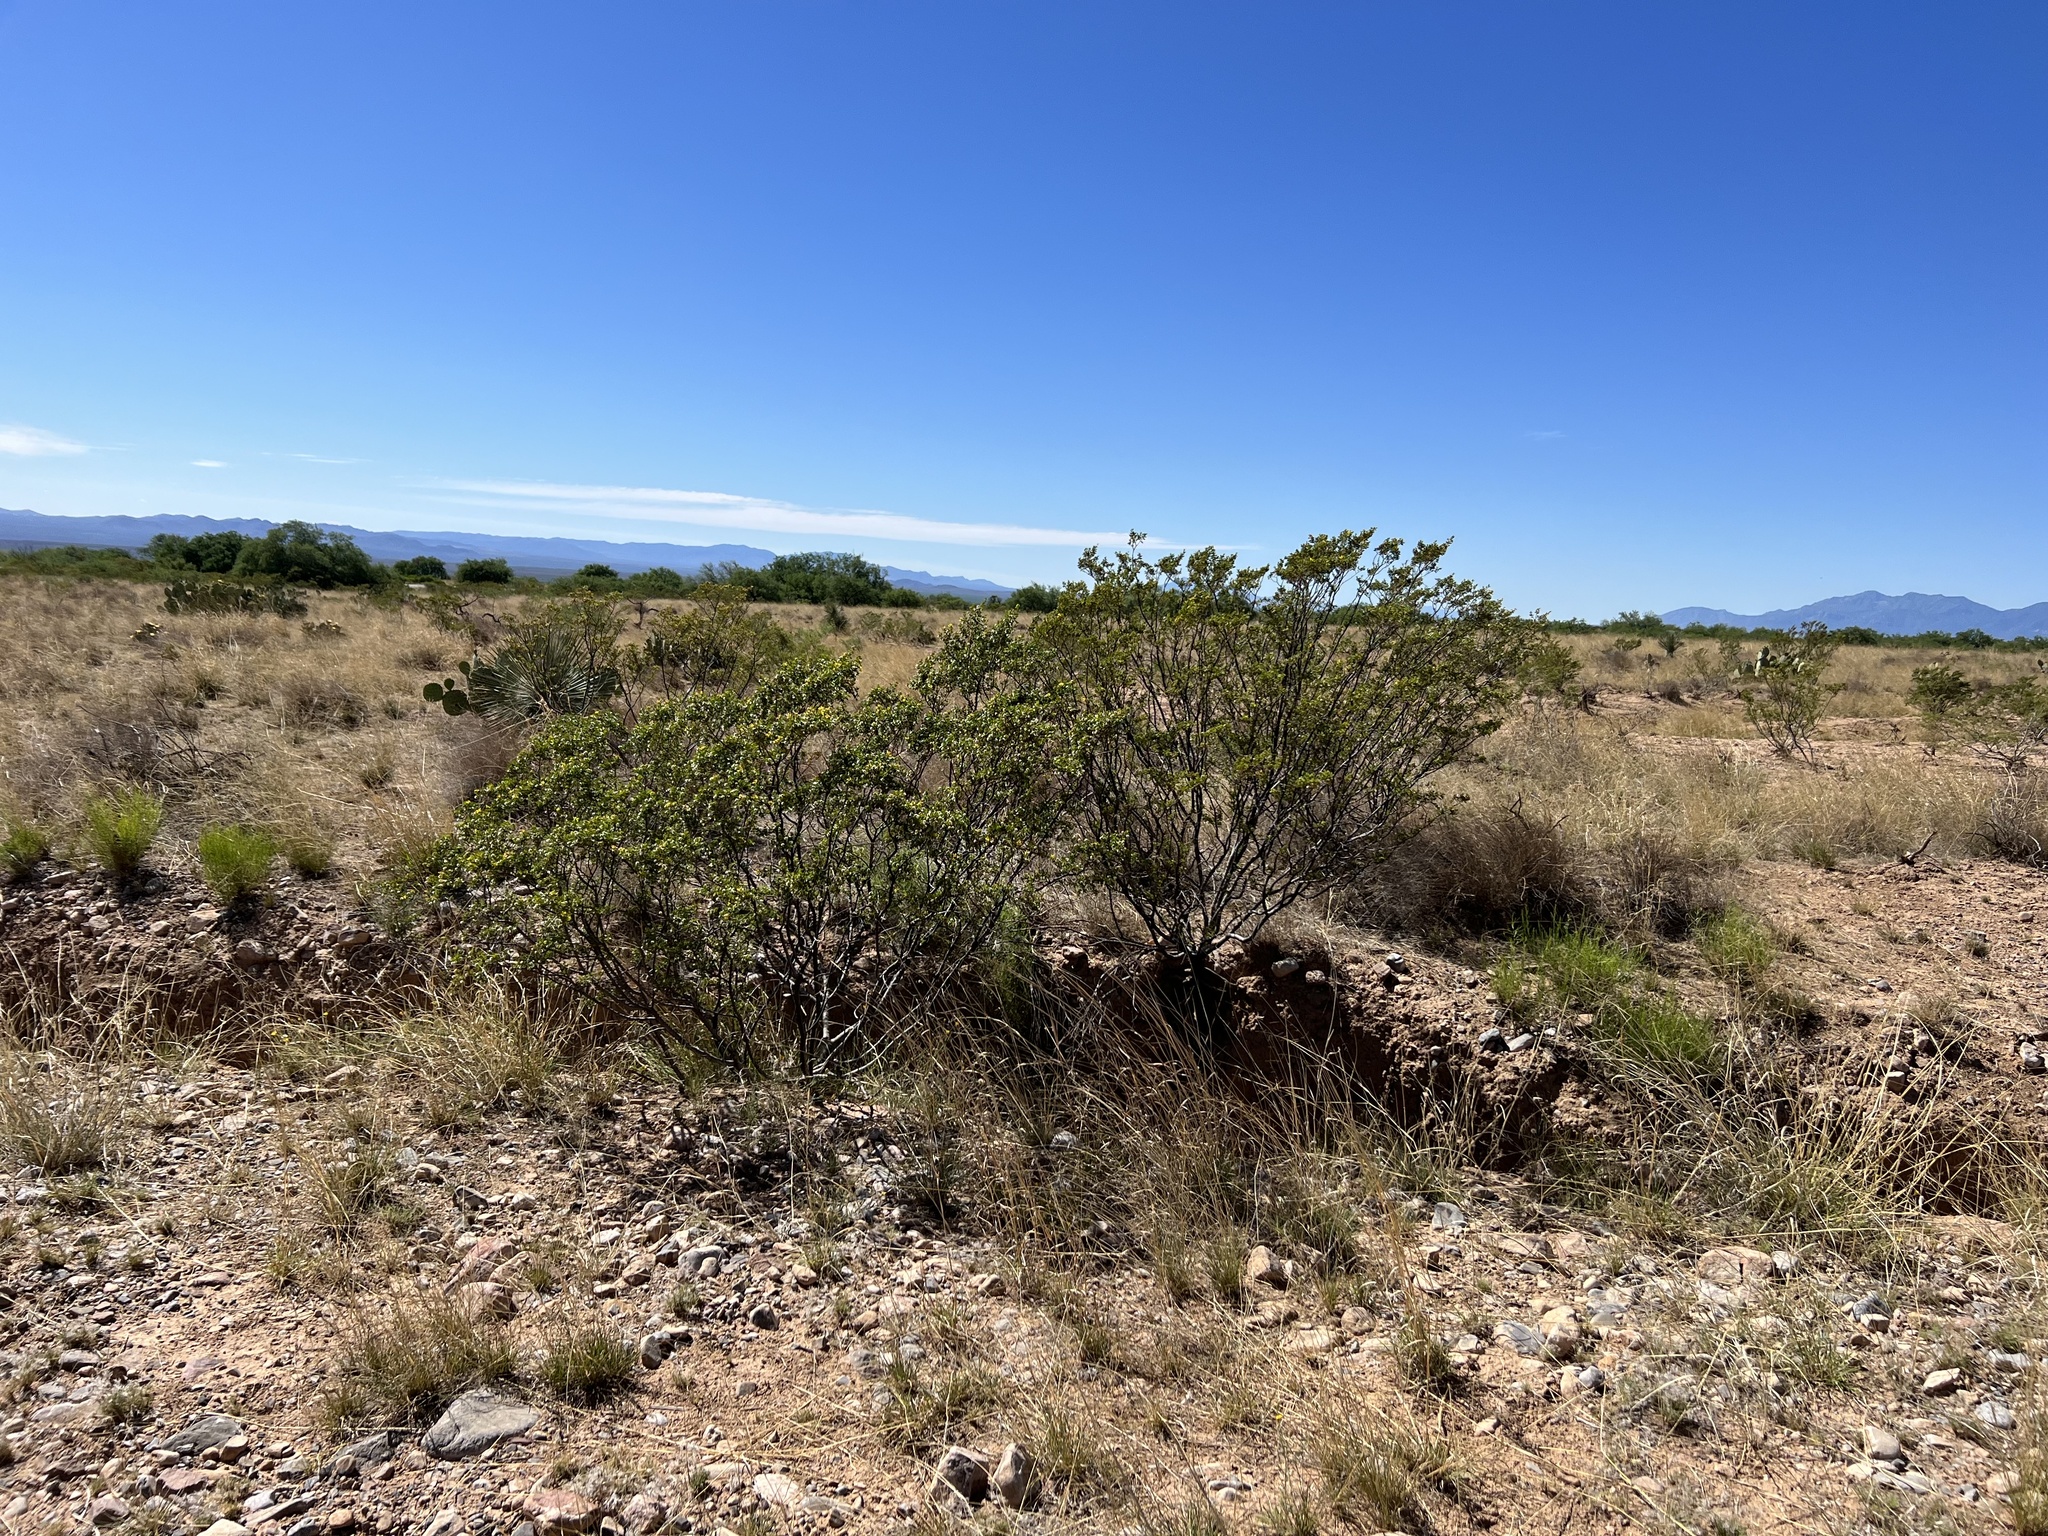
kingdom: Plantae
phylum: Tracheophyta
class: Magnoliopsida
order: Zygophyllales
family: Zygophyllaceae
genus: Larrea
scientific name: Larrea tridentata
